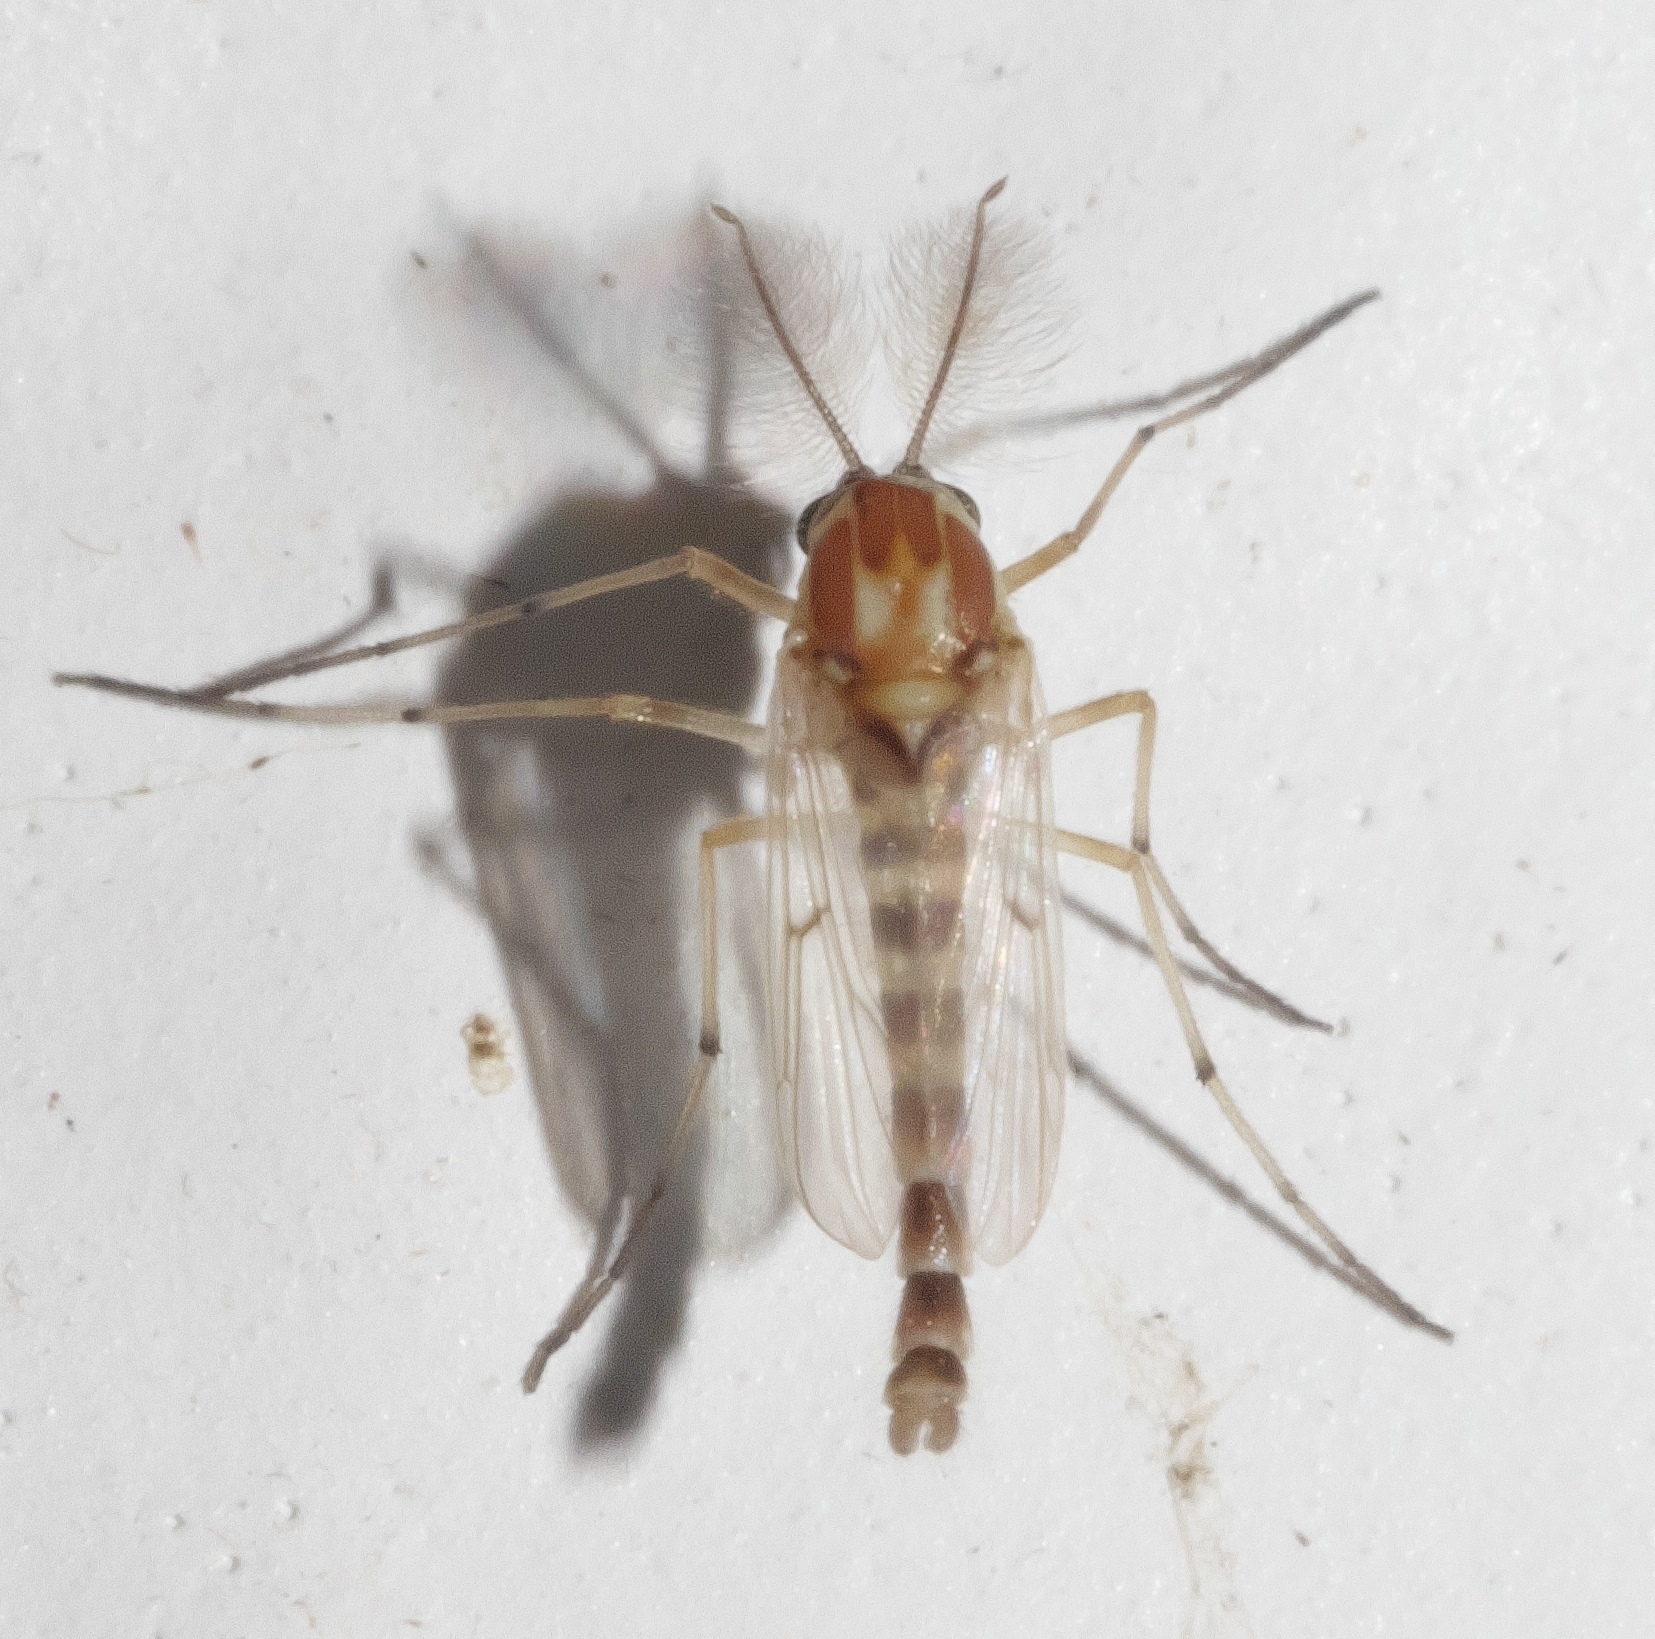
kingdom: Animalia
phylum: Arthropoda
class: Insecta
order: Diptera
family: Chironomidae
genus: Procladius
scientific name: Procladius bellus
